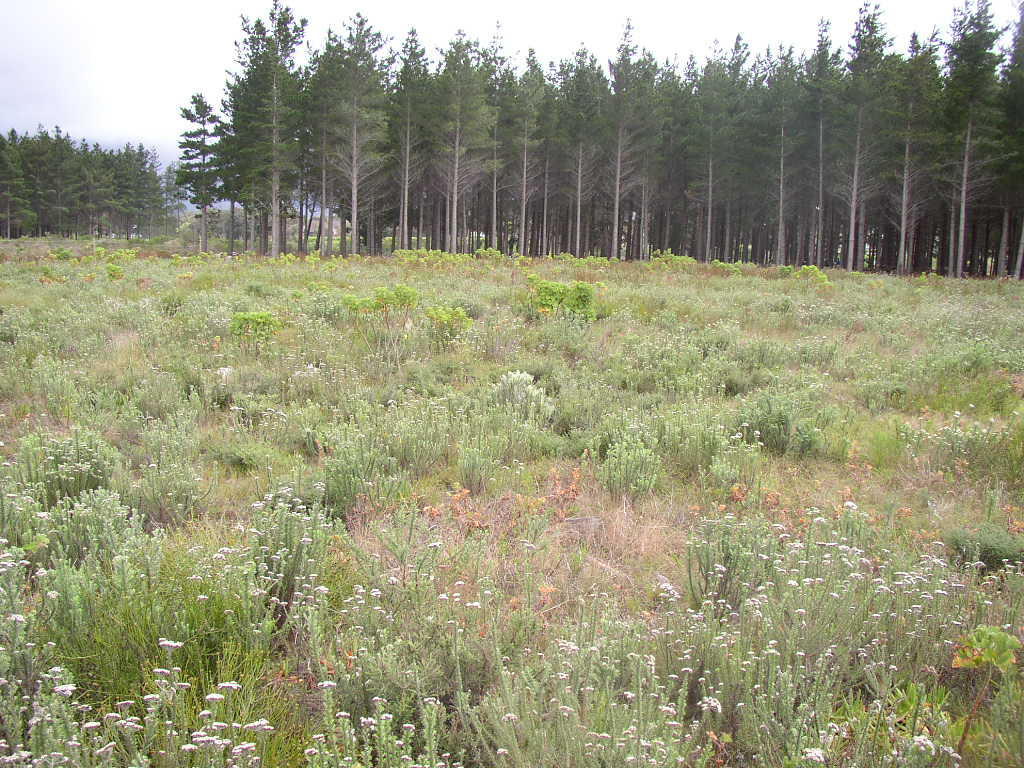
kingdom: Plantae
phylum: Tracheophyta
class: Magnoliopsida
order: Asterales
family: Asteraceae
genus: Metalasia
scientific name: Metalasia densa
